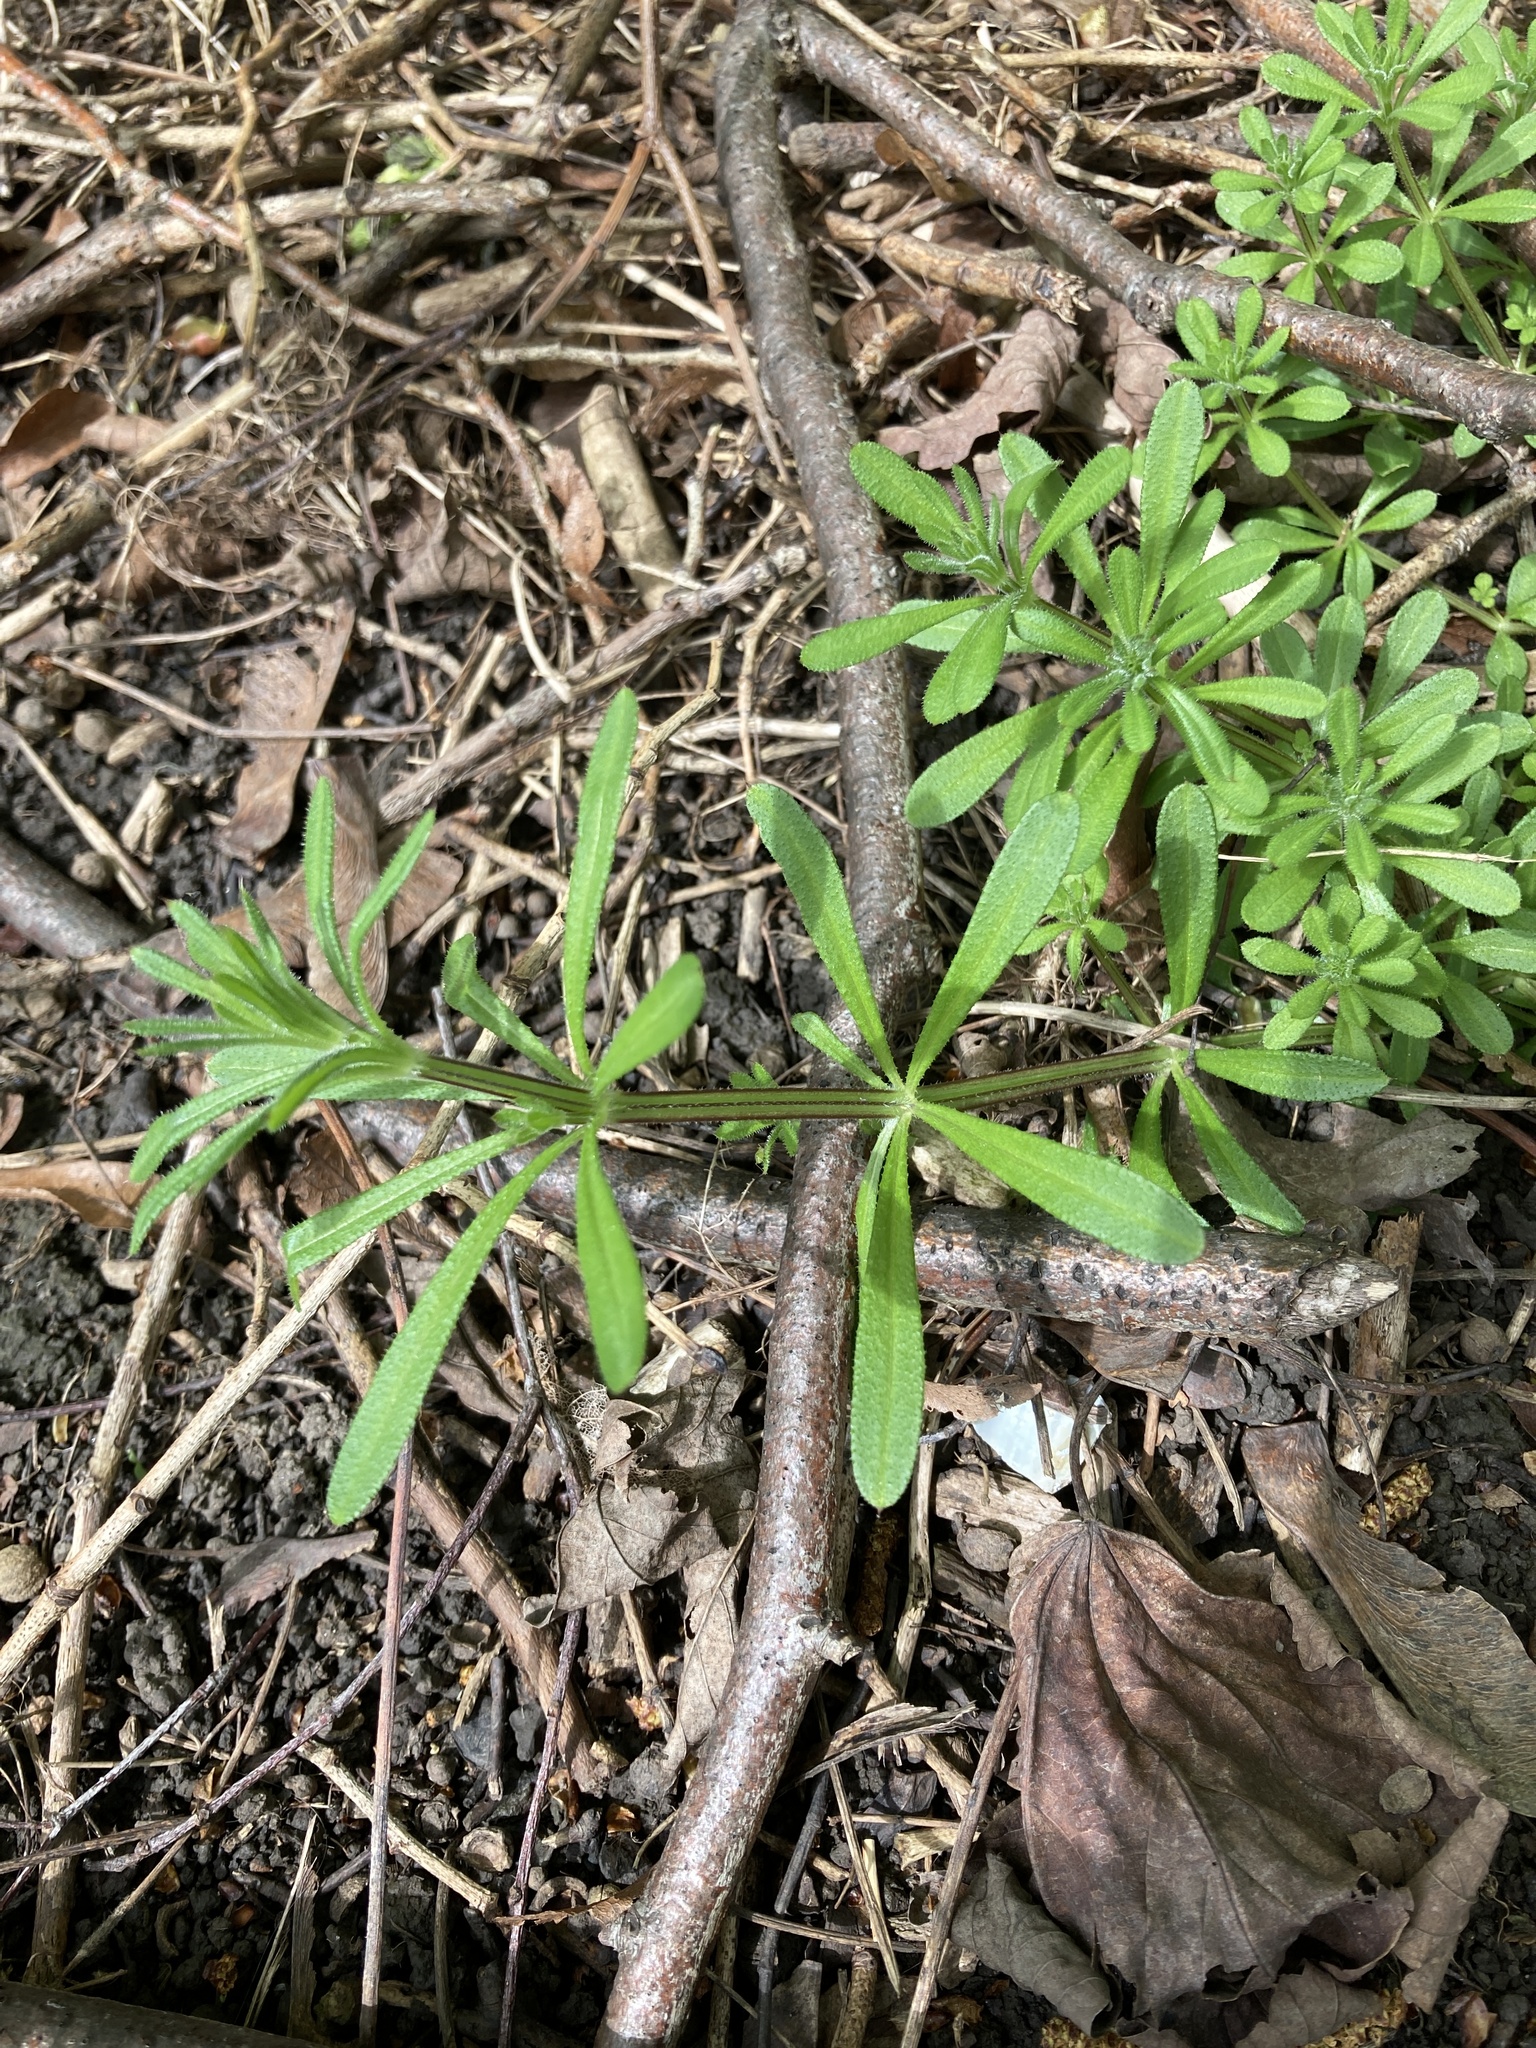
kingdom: Plantae
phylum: Tracheophyta
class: Magnoliopsida
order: Gentianales
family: Rubiaceae
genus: Galium
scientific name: Galium aparine
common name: Cleavers
